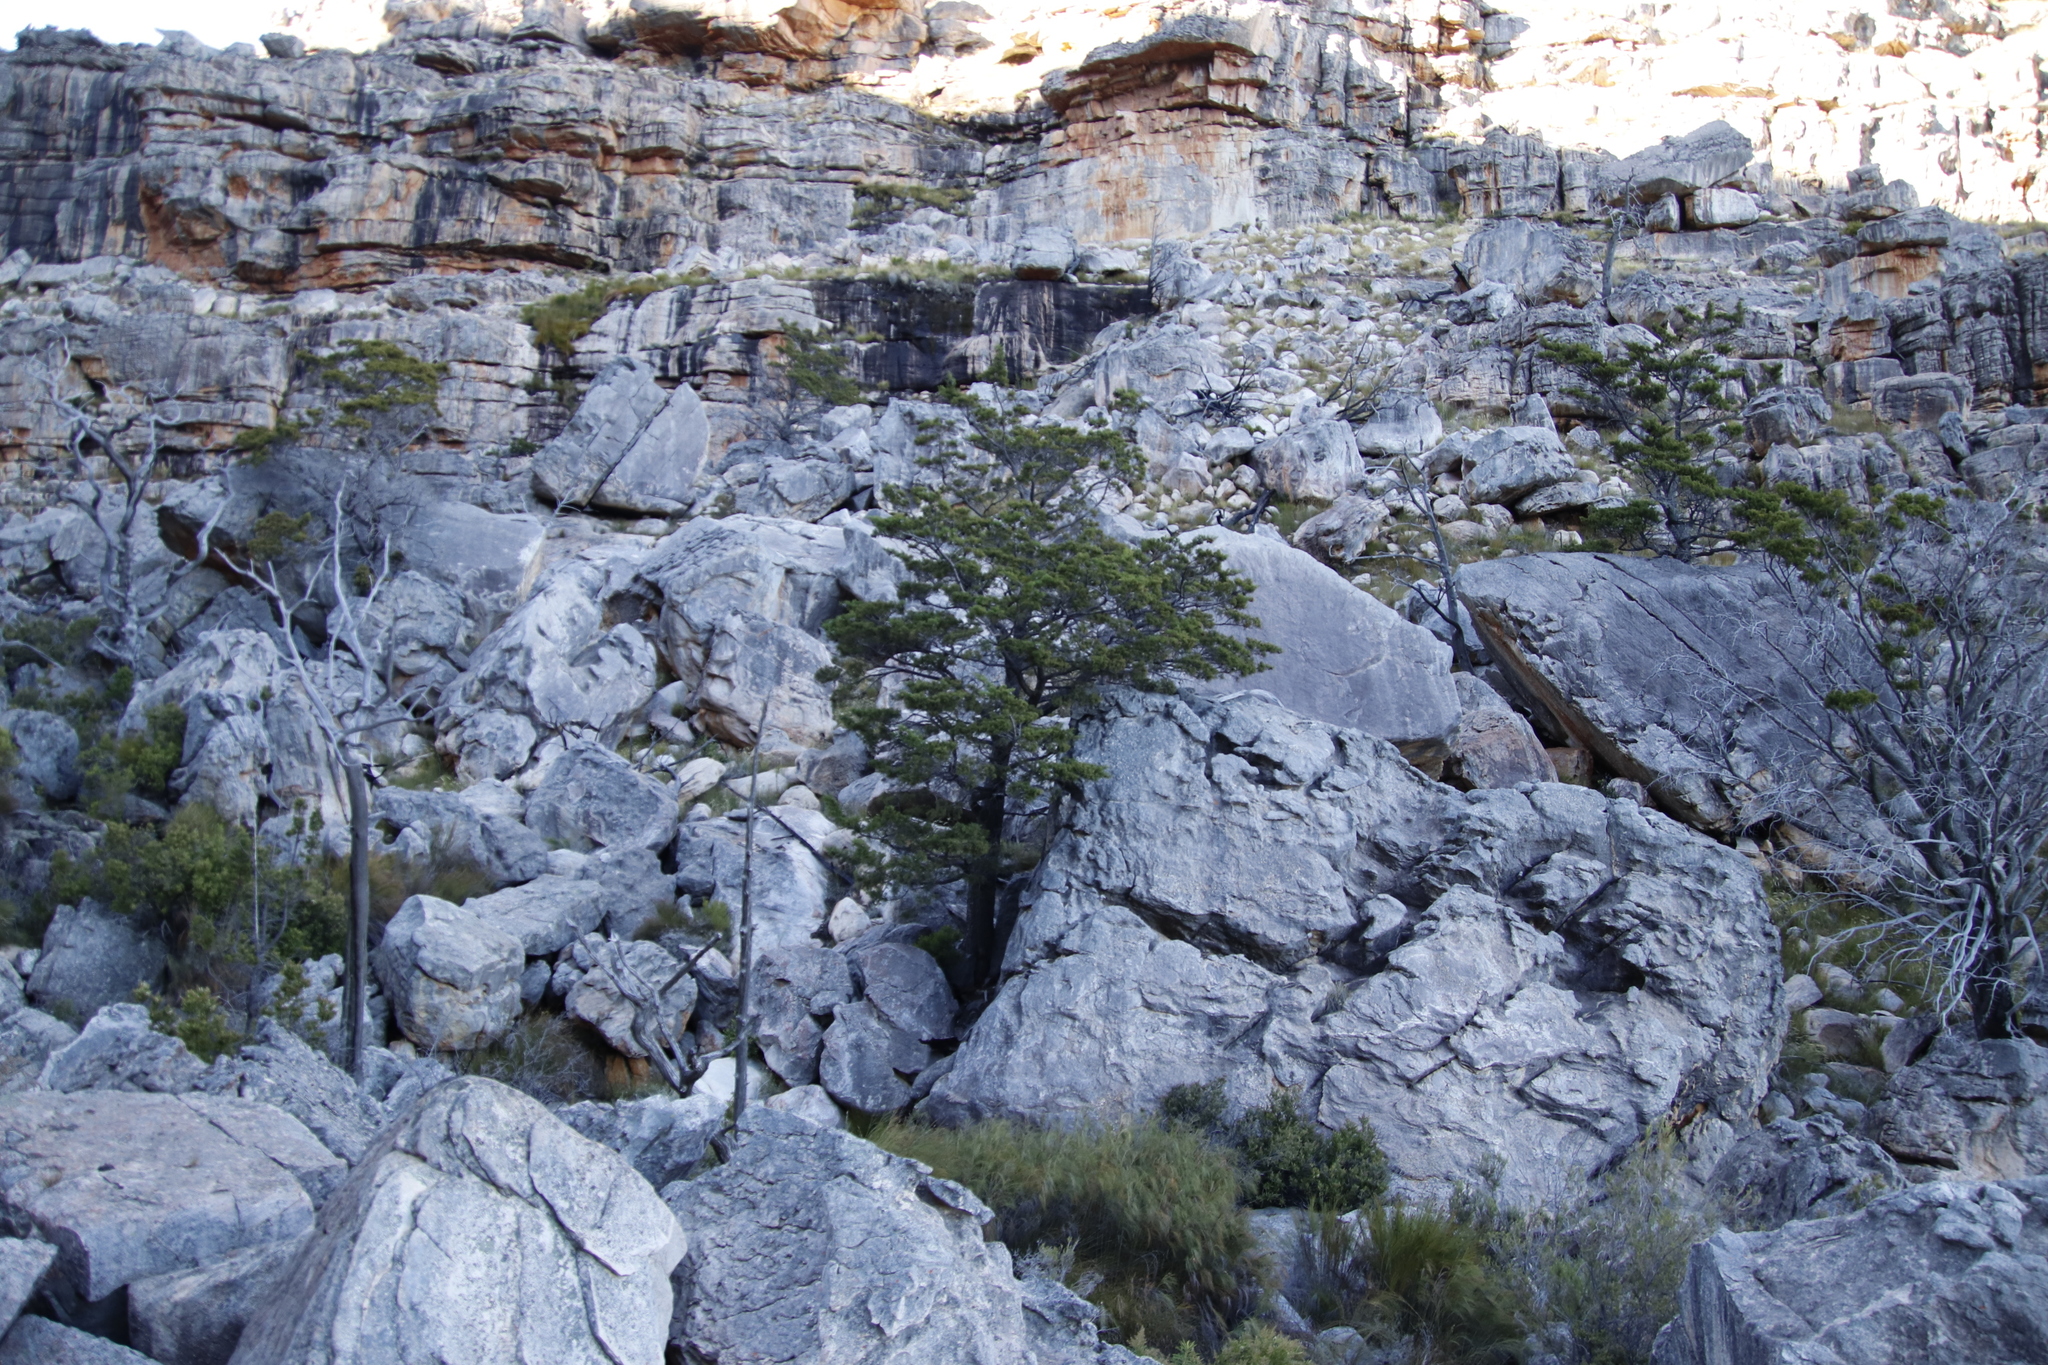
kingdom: Plantae
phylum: Tracheophyta
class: Pinopsida
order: Pinales
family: Cupressaceae
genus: Widdringtonia
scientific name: Widdringtonia nodiflora
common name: Cape cypress
